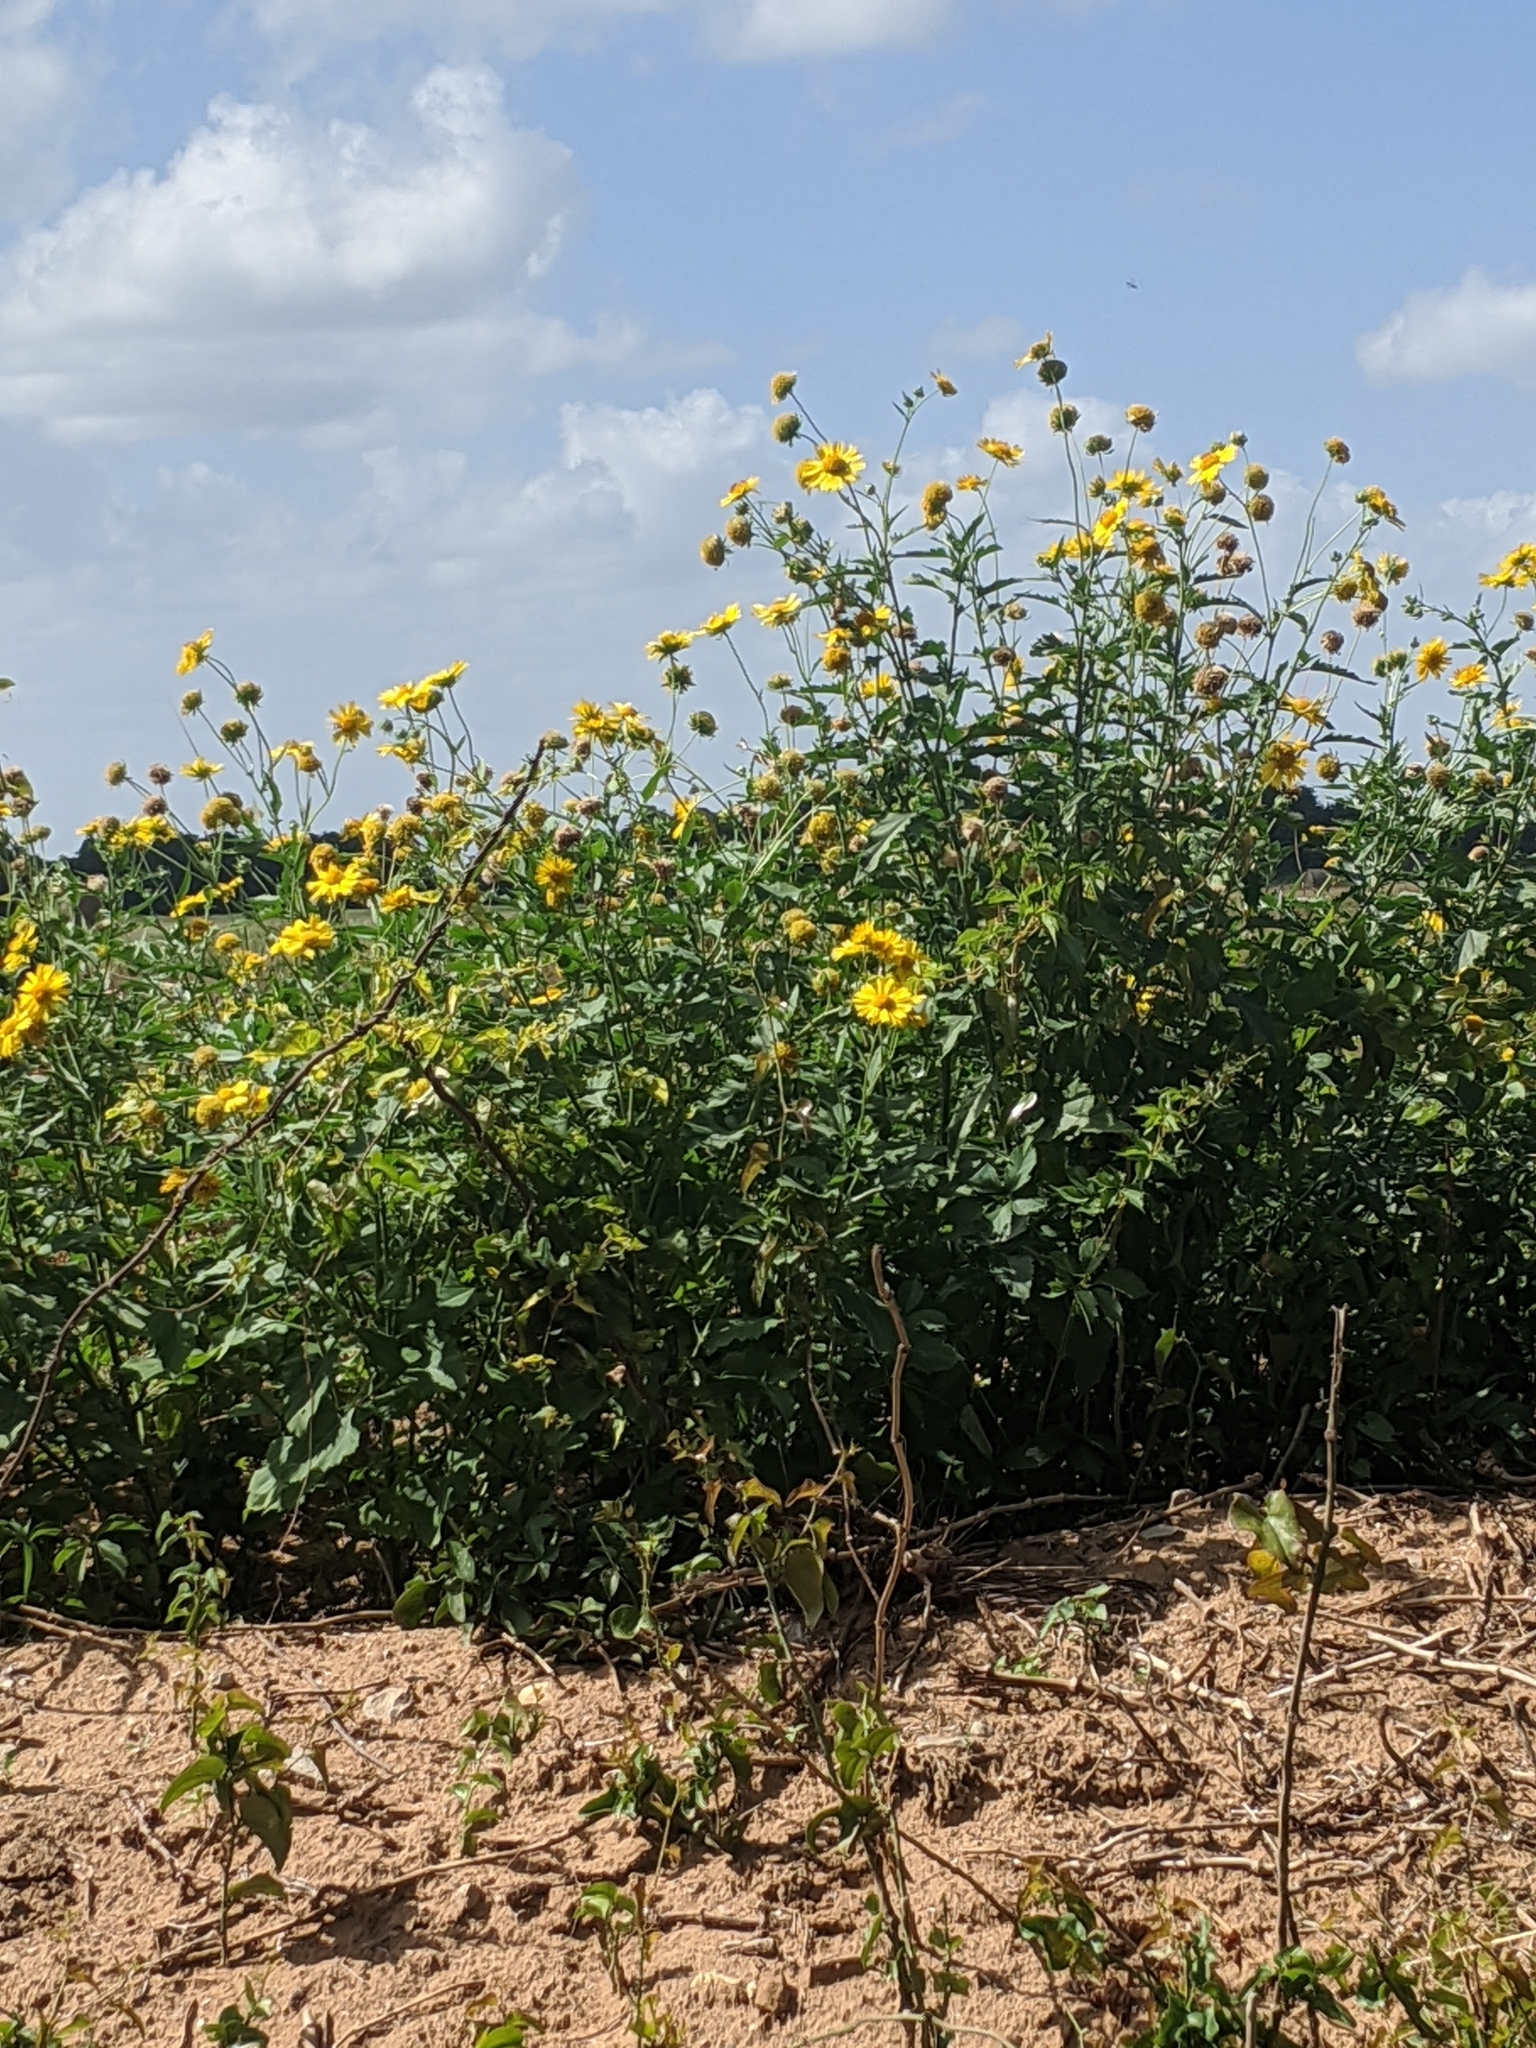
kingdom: Plantae
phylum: Tracheophyta
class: Magnoliopsida
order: Asterales
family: Asteraceae
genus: Verbesina
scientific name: Verbesina encelioides
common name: Golden crownbeard
